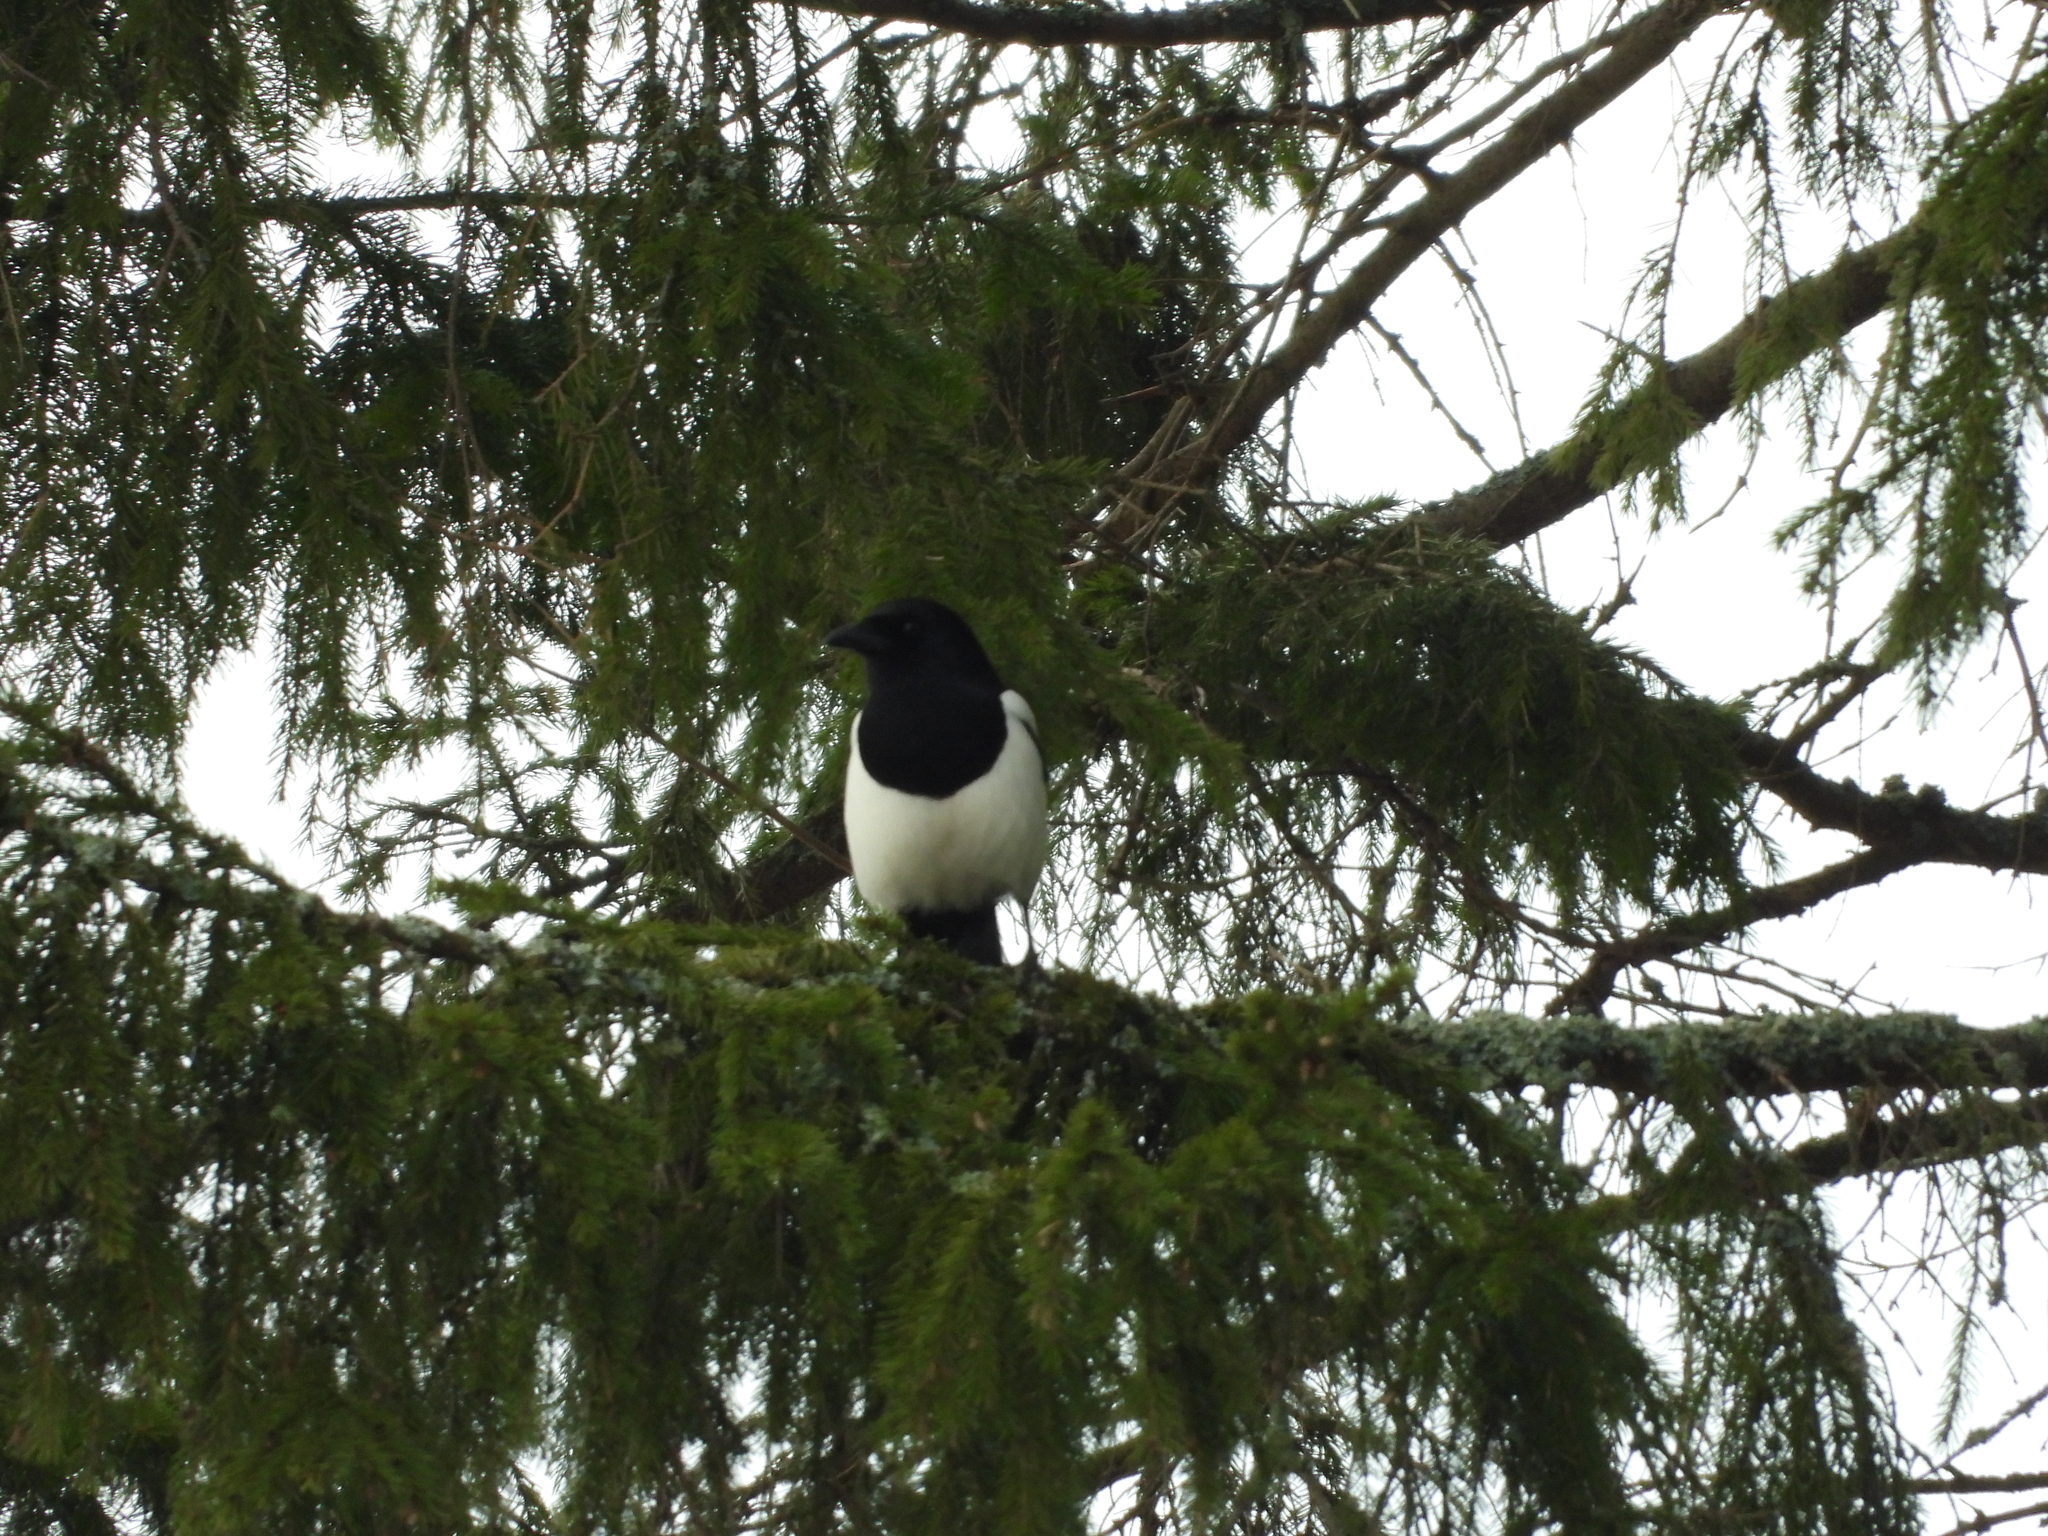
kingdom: Animalia
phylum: Chordata
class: Aves
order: Passeriformes
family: Corvidae
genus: Pica
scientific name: Pica pica
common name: Eurasian magpie
